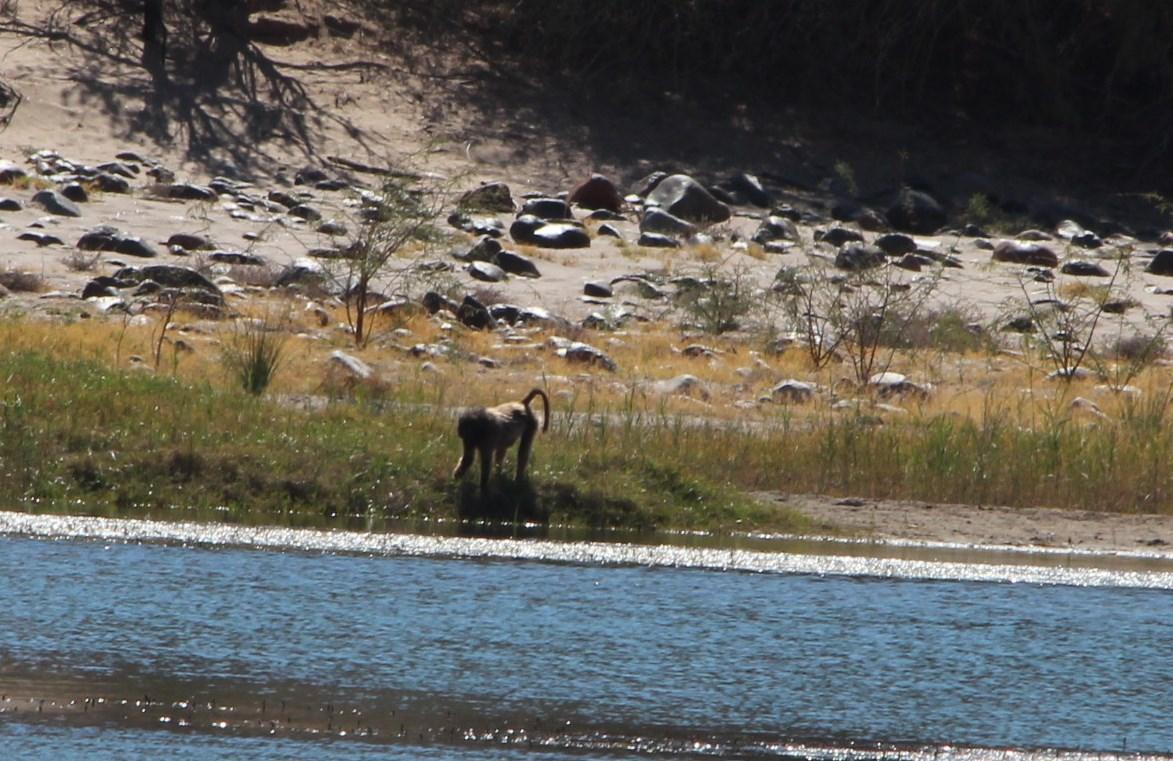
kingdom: Animalia
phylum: Chordata
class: Mammalia
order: Primates
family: Cercopithecidae
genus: Papio
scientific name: Papio ursinus
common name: Chacma baboon
